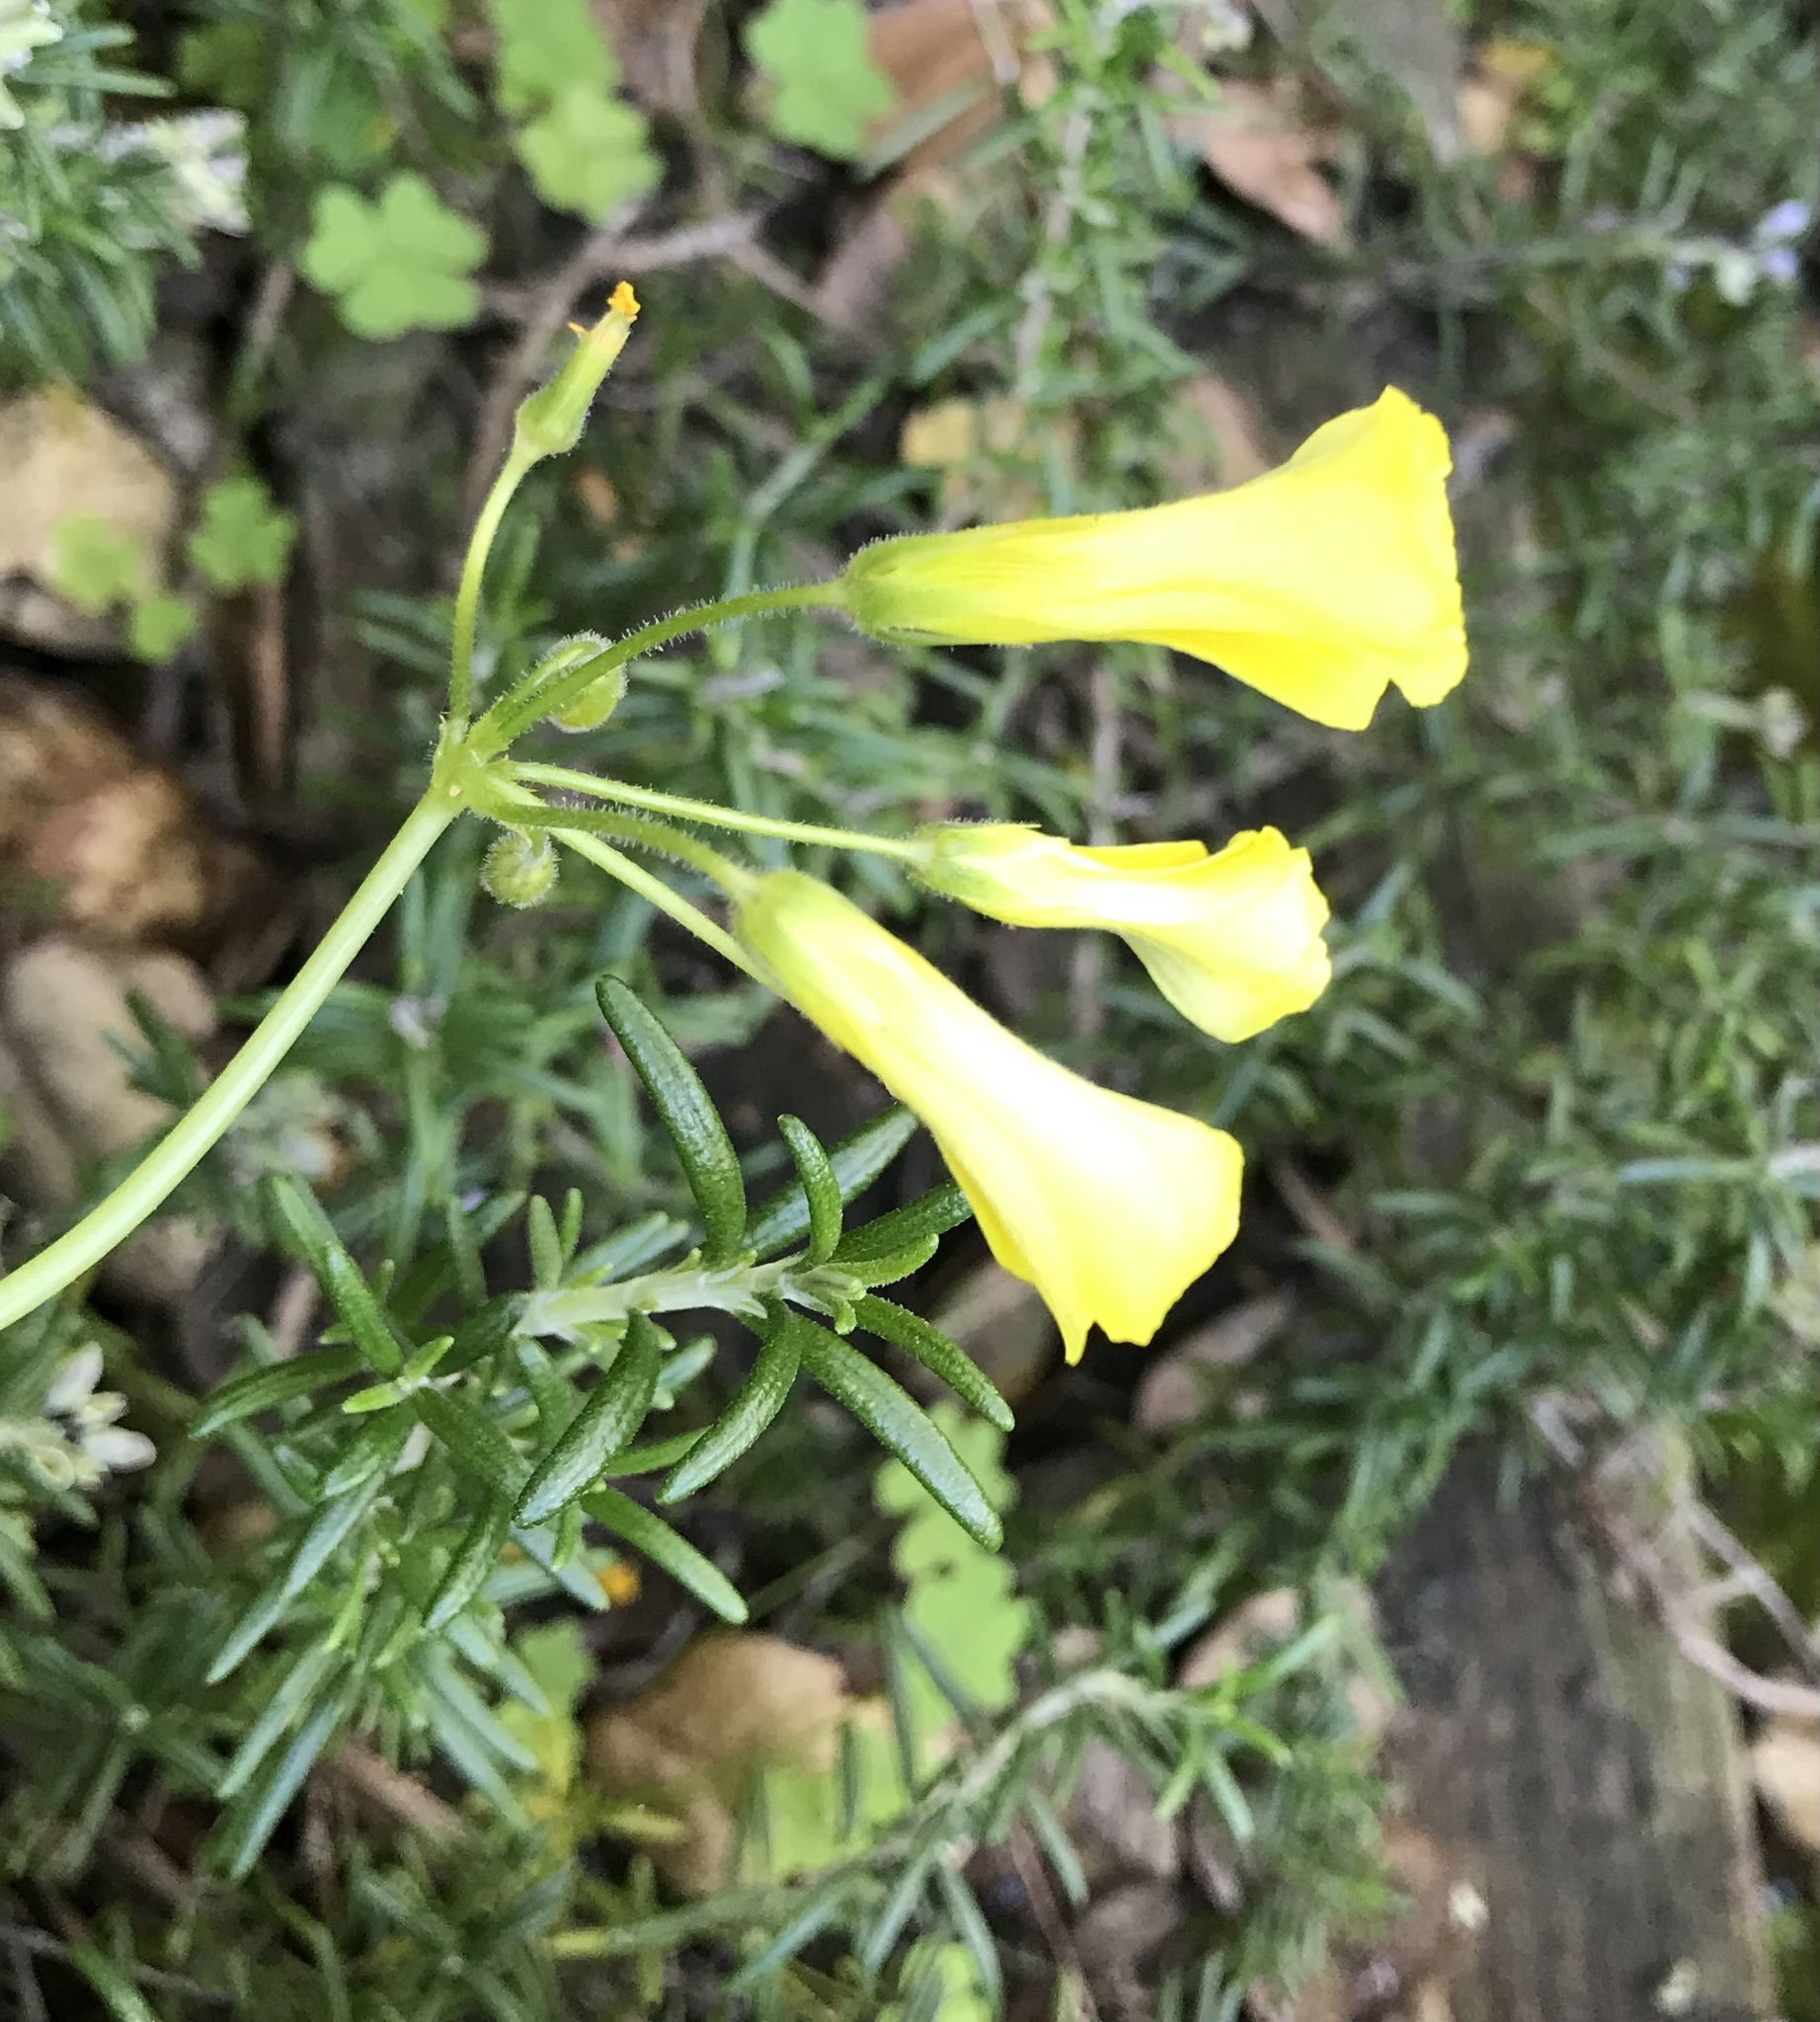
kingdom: Plantae
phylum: Tracheophyta
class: Magnoliopsida
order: Oxalidales
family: Oxalidaceae
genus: Oxalis
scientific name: Oxalis pes-caprae
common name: Bermuda-buttercup
